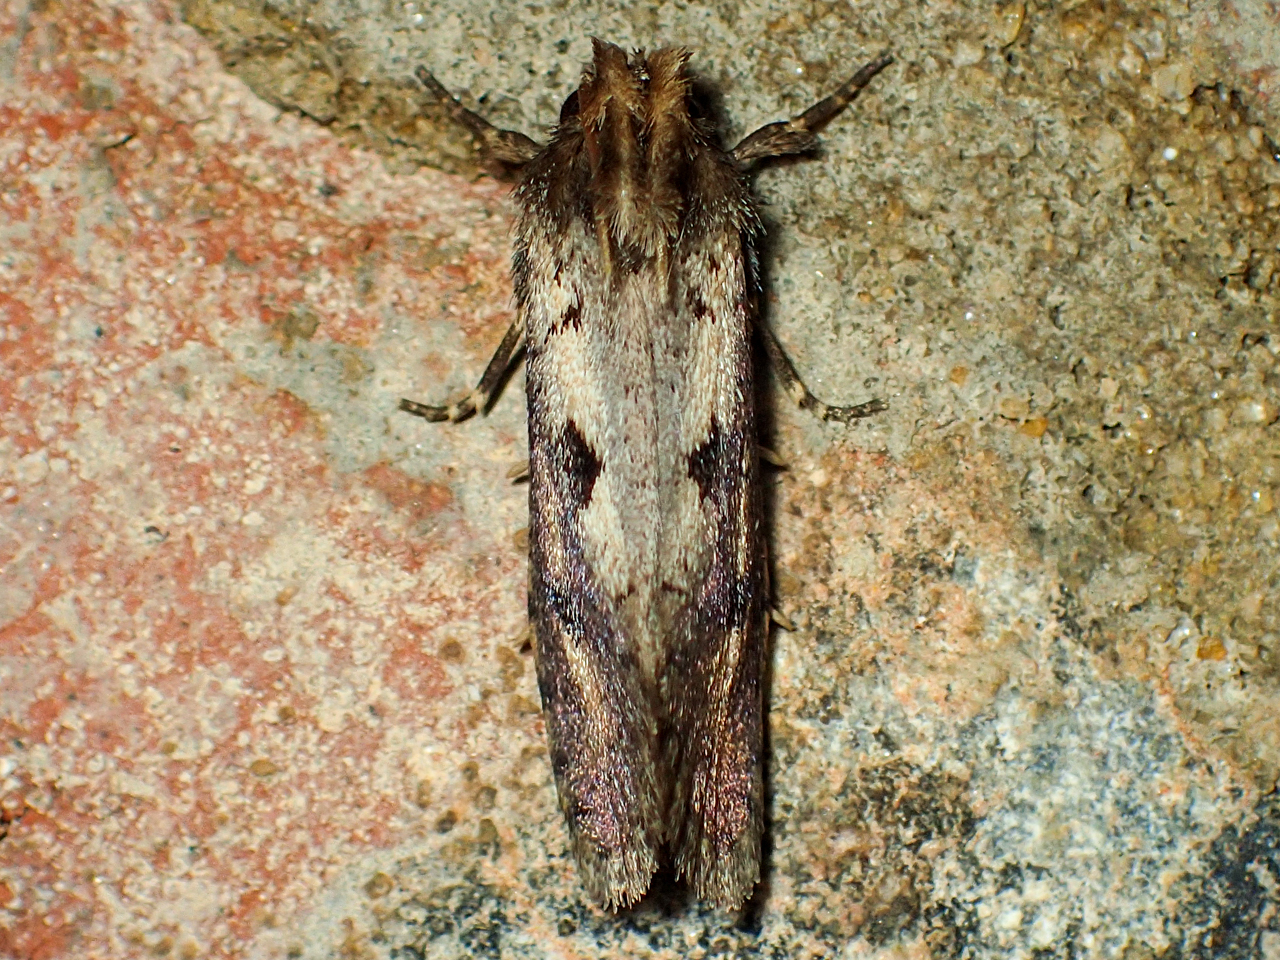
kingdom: Animalia
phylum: Arthropoda
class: Insecta
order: Lepidoptera
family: Tineidae
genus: Acrolophus
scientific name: Acrolophus popeanella
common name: Clemens' grass tubeworm moth
